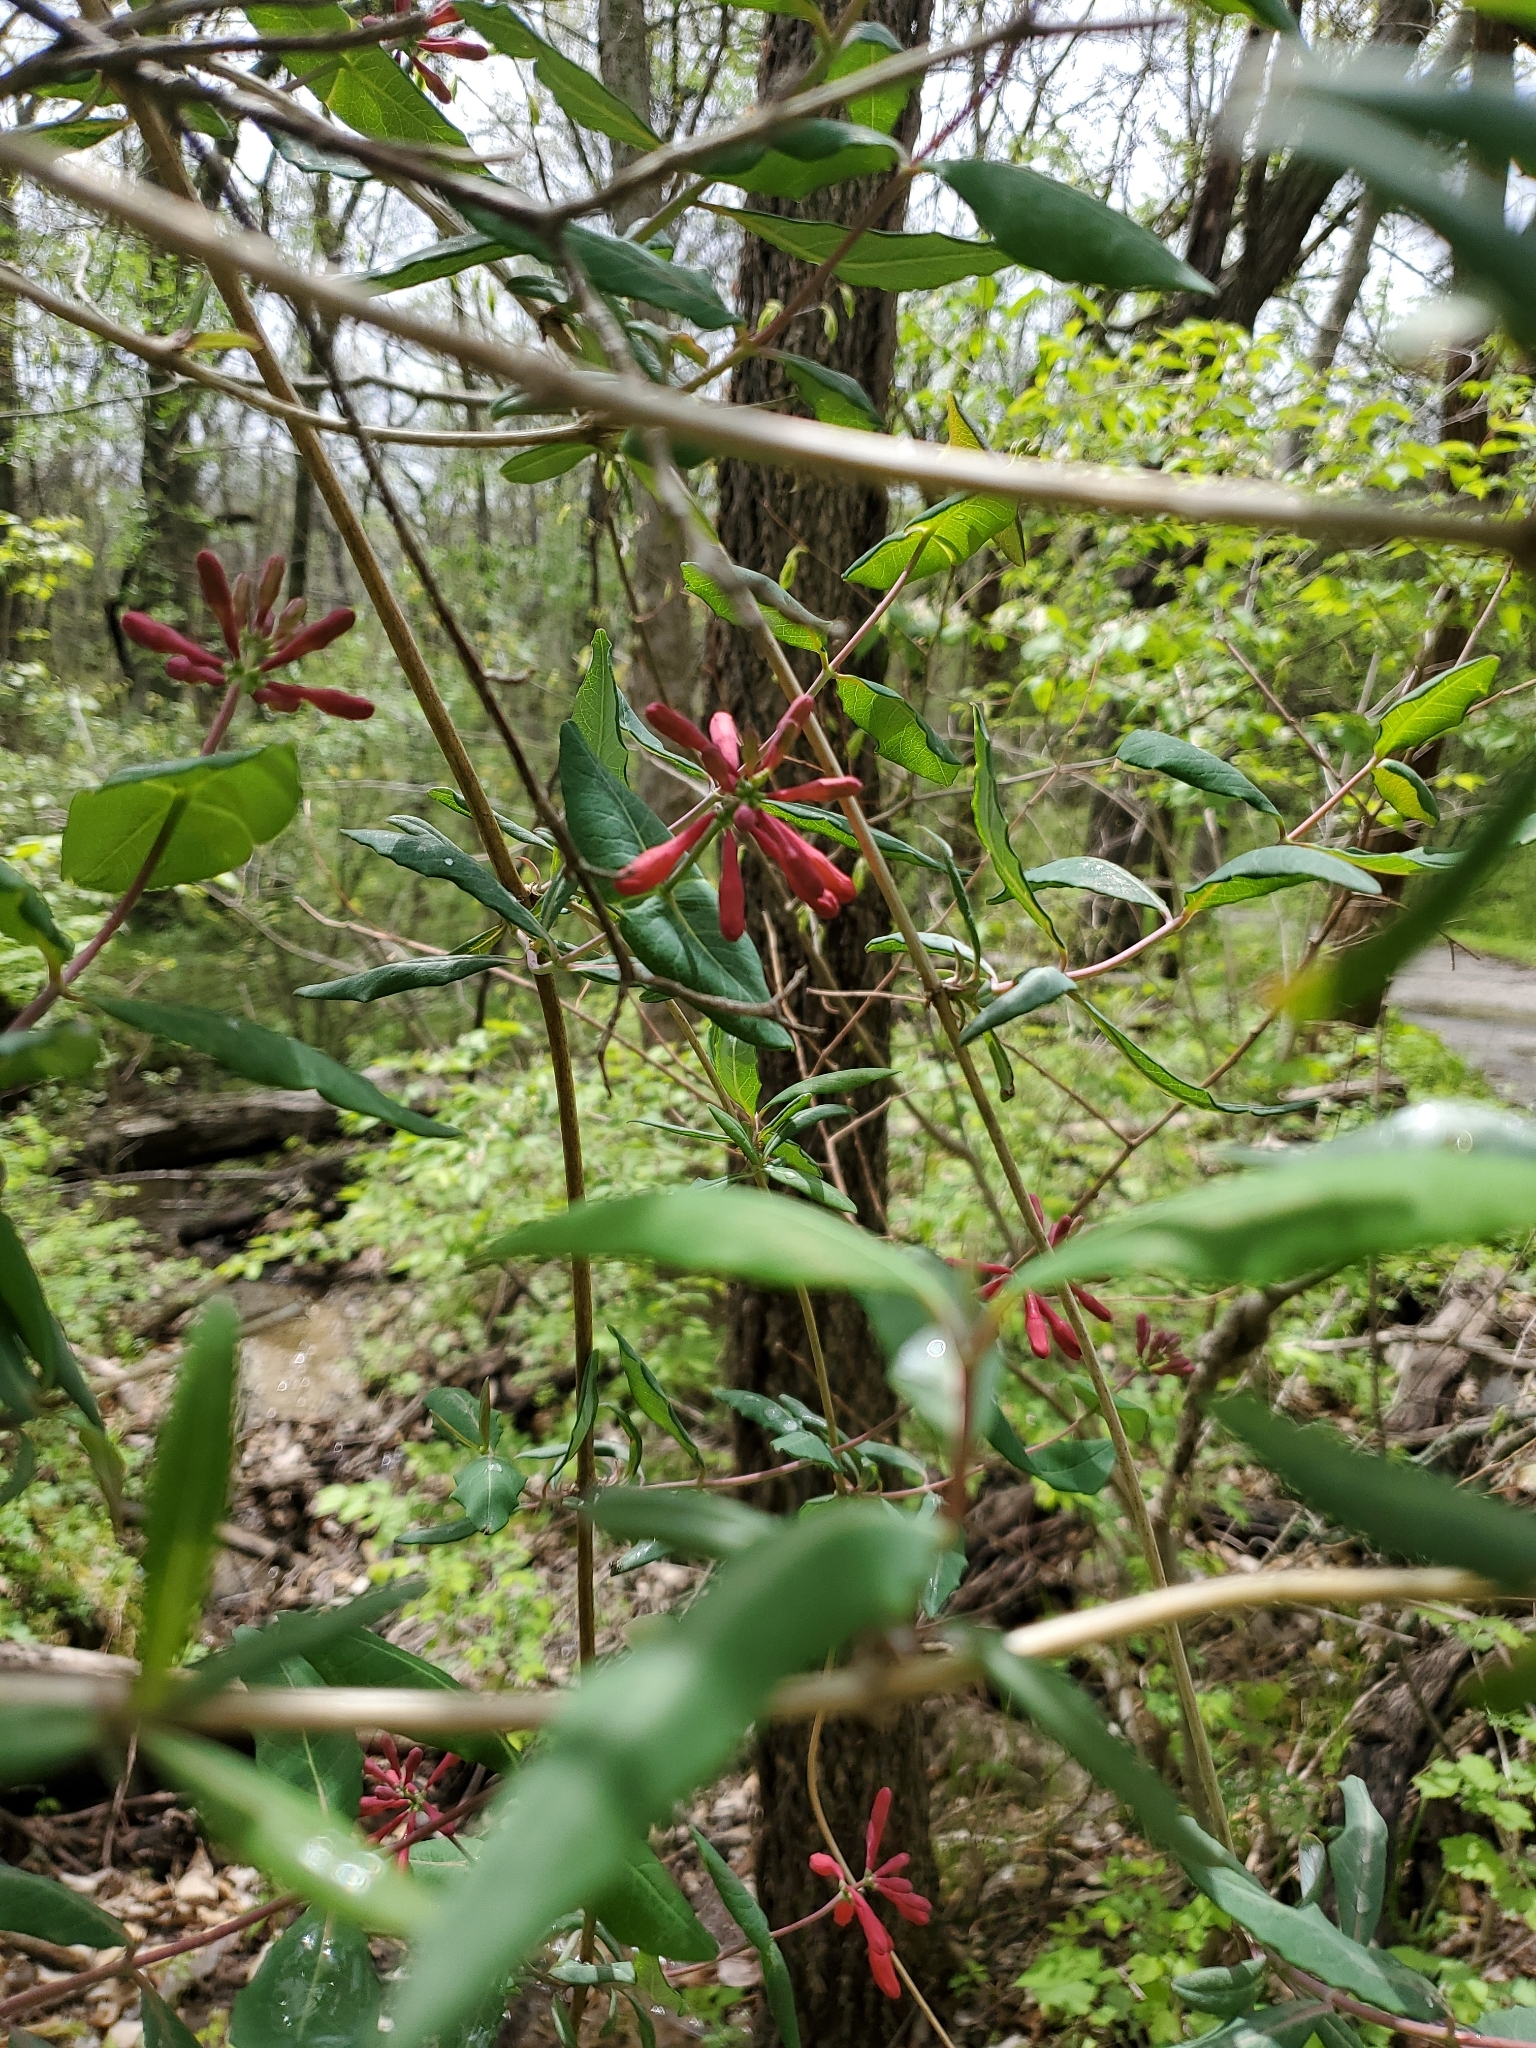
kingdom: Plantae
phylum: Tracheophyta
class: Magnoliopsida
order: Dipsacales
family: Caprifoliaceae
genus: Lonicera
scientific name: Lonicera sempervirens
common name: Coral honeysuckle
